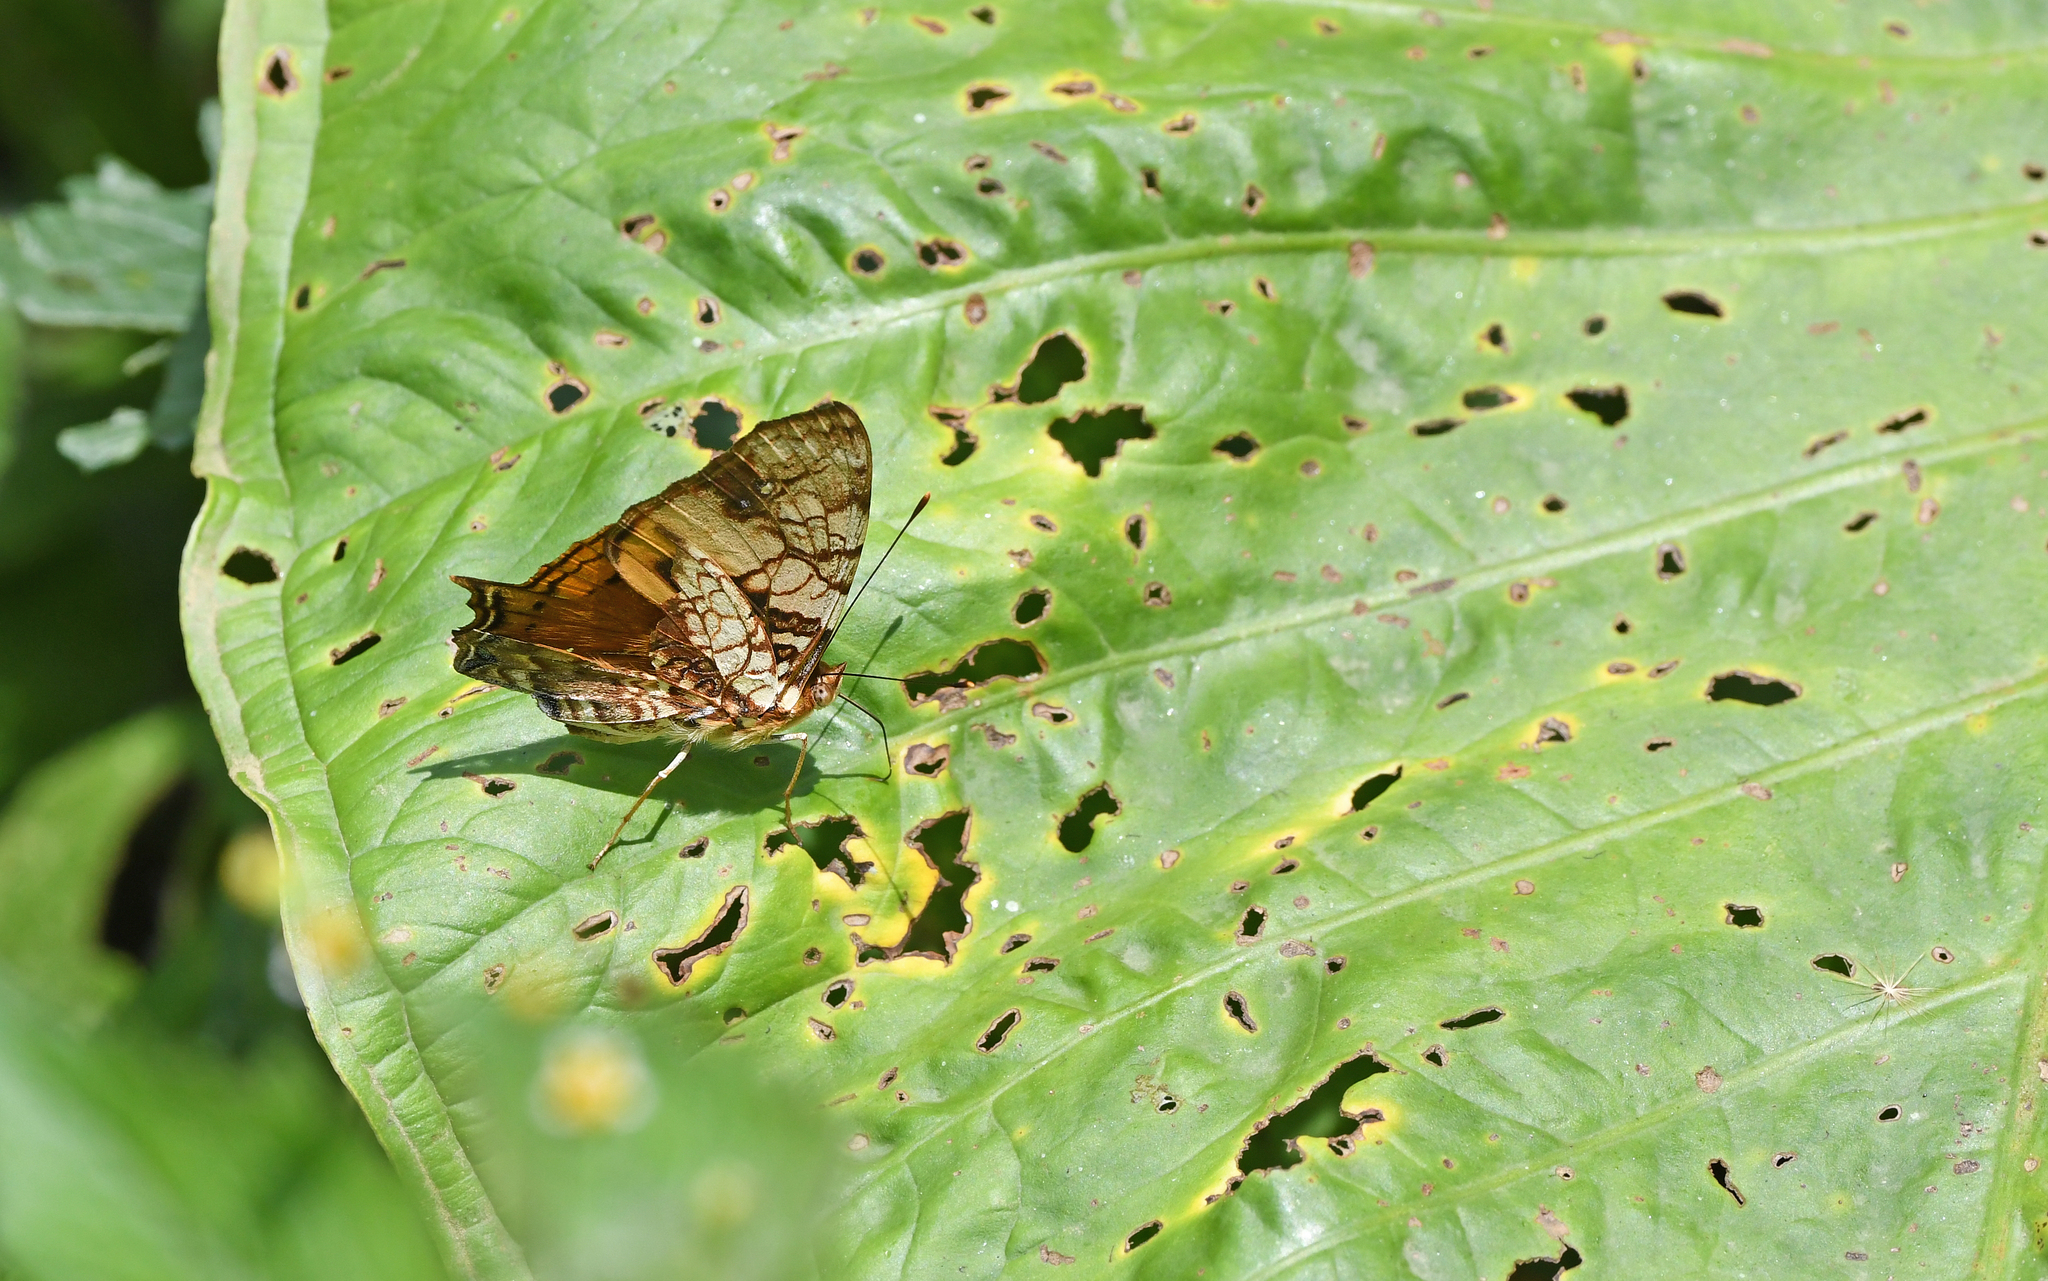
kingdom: Animalia
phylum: Arthropoda
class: Insecta
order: Lepidoptera
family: Nymphalidae
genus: Hypanartia
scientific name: Hypanartia lethe
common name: Orange mapwing
